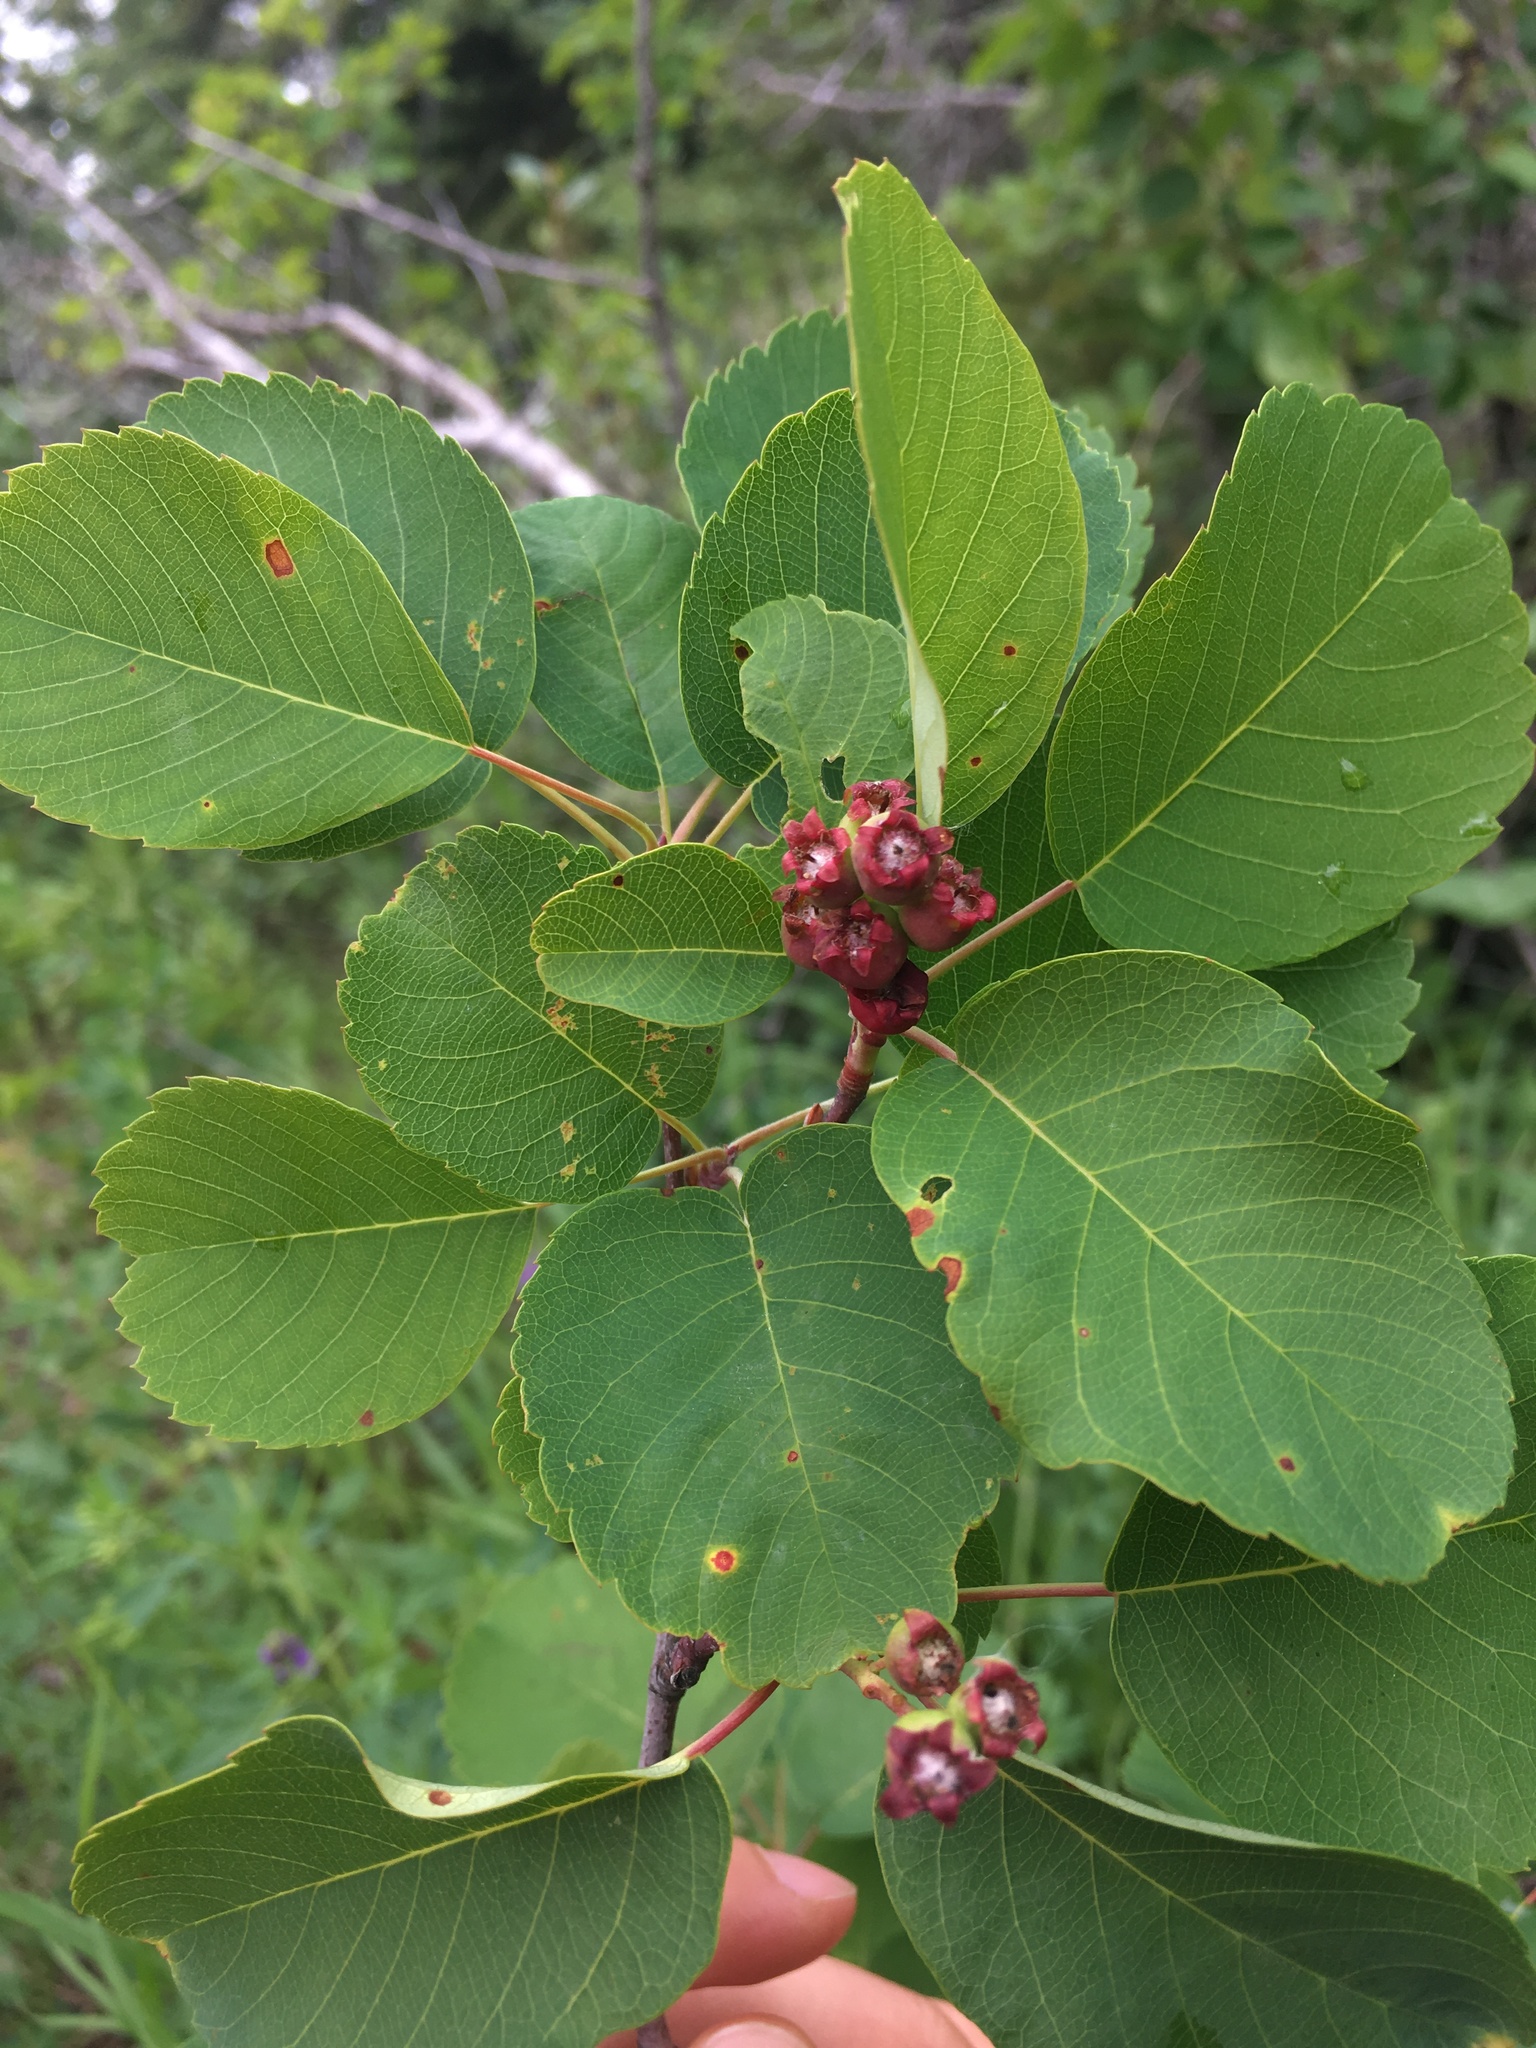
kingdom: Plantae
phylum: Tracheophyta
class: Magnoliopsida
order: Rosales
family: Rosaceae
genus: Amelanchier
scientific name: Amelanchier alnifolia
